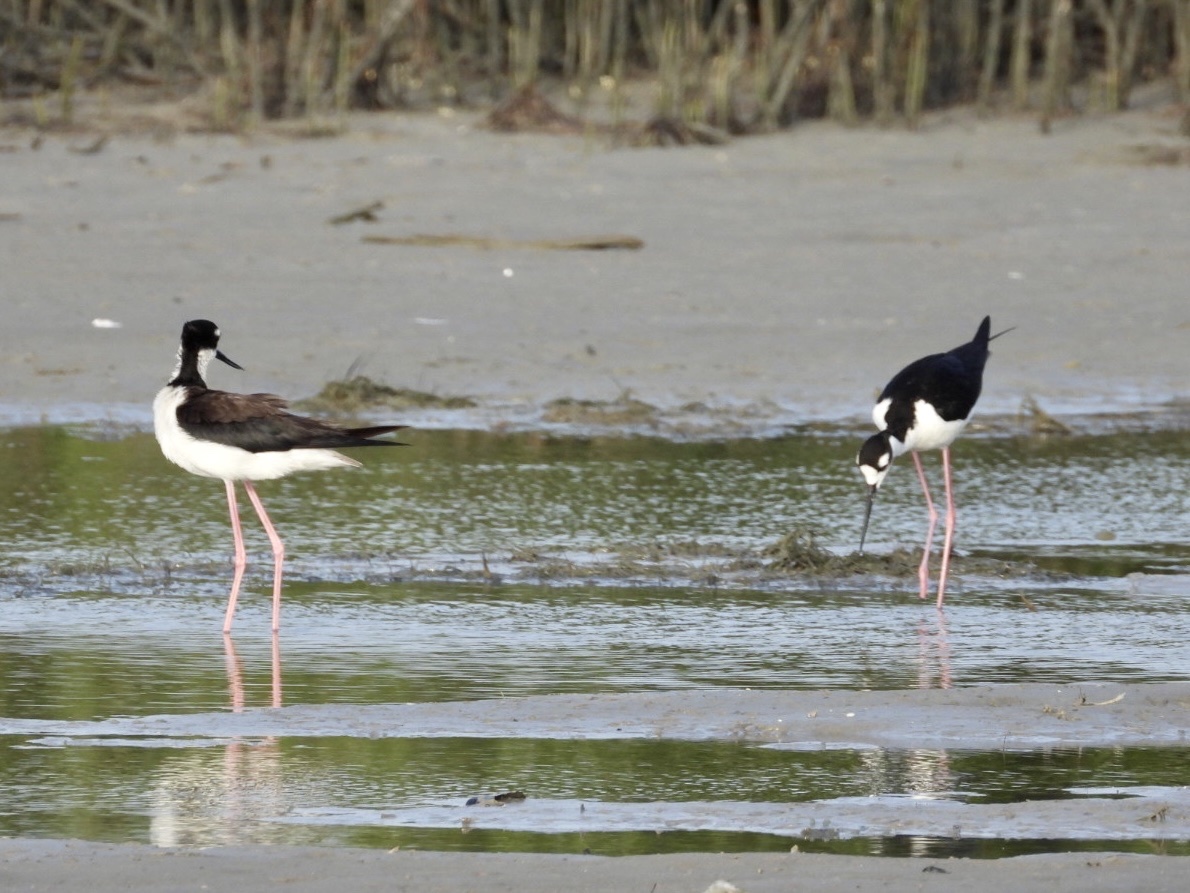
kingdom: Animalia
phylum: Chordata
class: Aves
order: Charadriiformes
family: Recurvirostridae
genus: Himantopus
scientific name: Himantopus mexicanus
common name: Black-necked stilt
